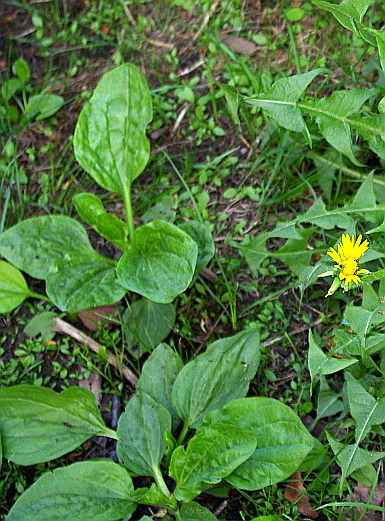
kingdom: Plantae
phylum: Tracheophyta
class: Magnoliopsida
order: Lamiales
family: Plantaginaceae
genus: Plantago
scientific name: Plantago major
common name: Common plantain
